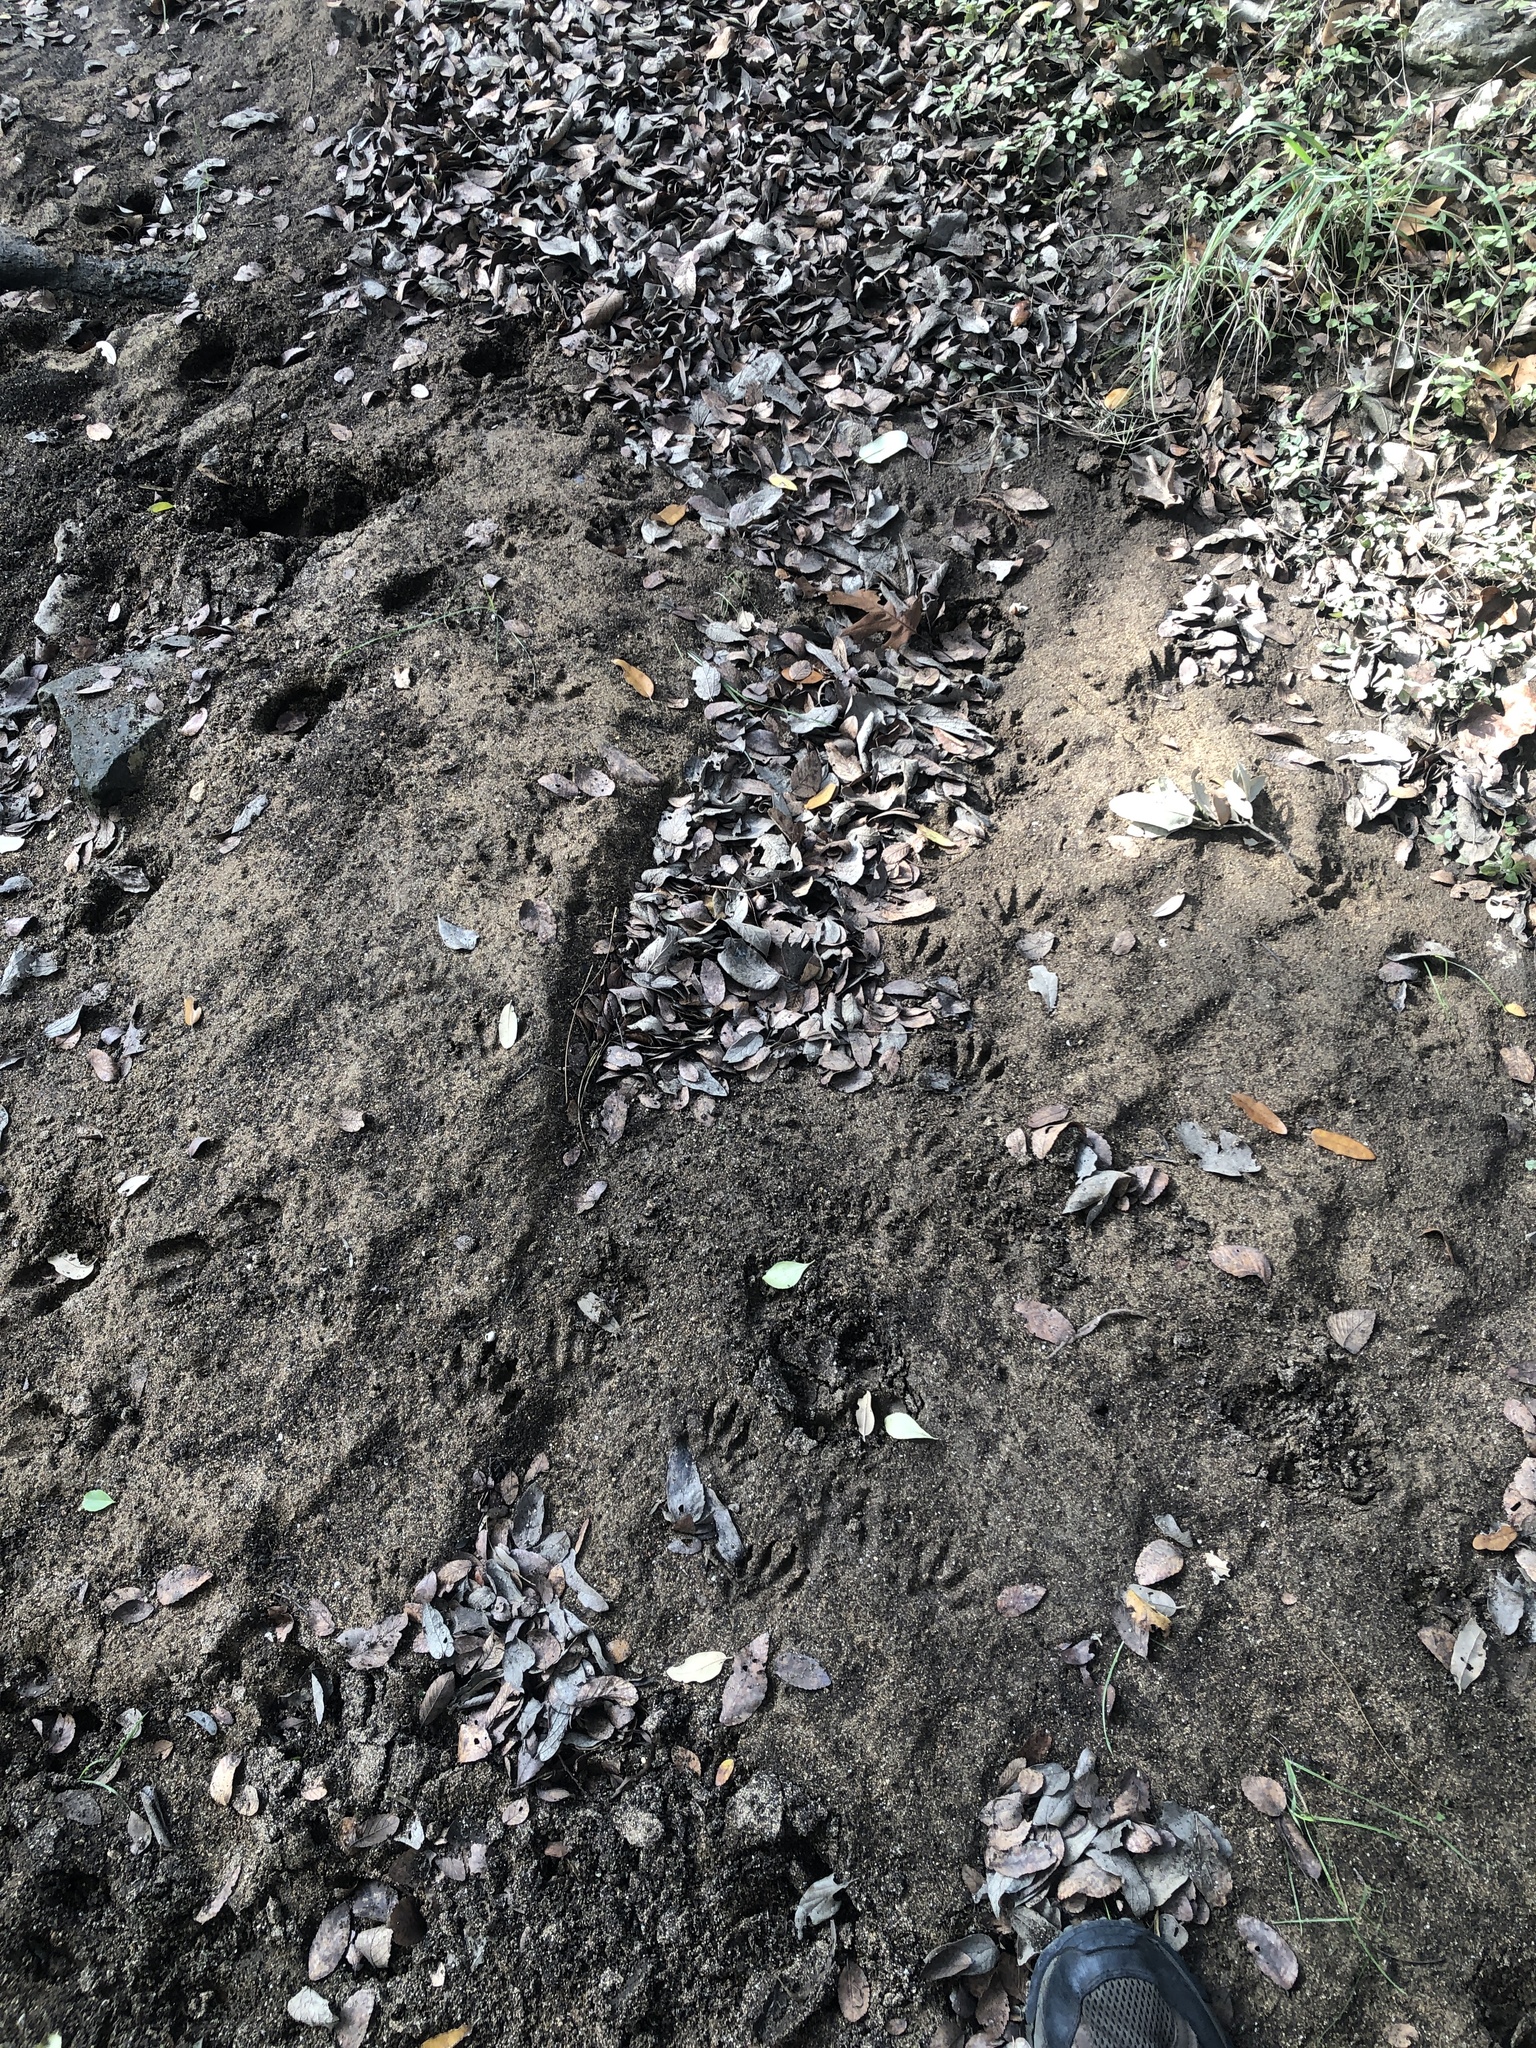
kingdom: Animalia
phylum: Chordata
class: Mammalia
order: Carnivora
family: Procyonidae
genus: Procyon
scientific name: Procyon lotor
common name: Raccoon
